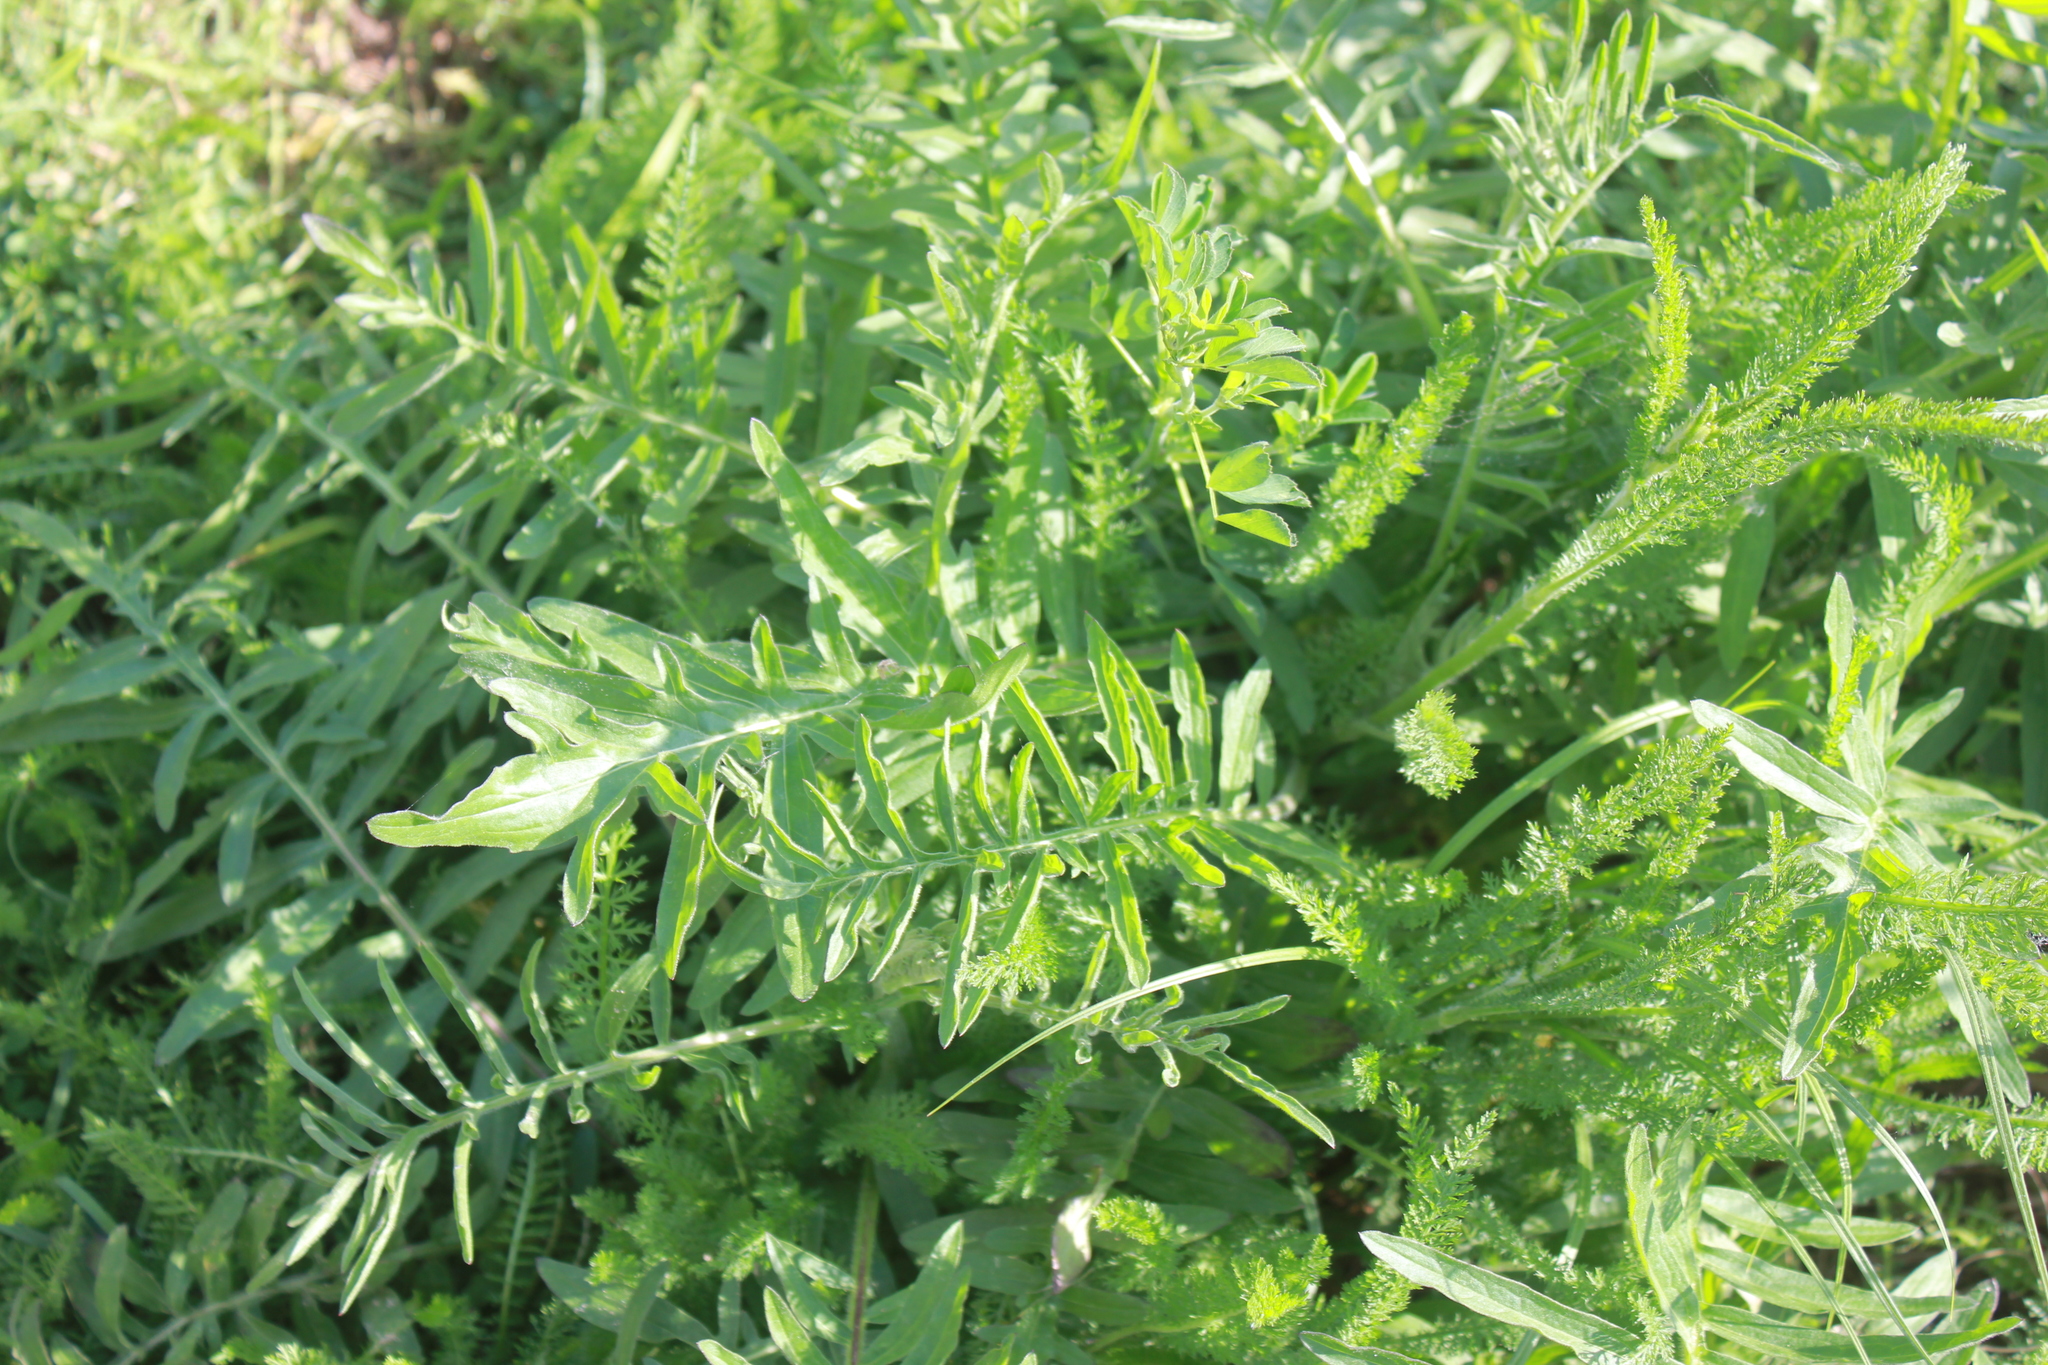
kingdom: Plantae
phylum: Tracheophyta
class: Magnoliopsida
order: Asterales
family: Asteraceae
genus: Centaurea
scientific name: Centaurea scabiosa
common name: Greater knapweed
